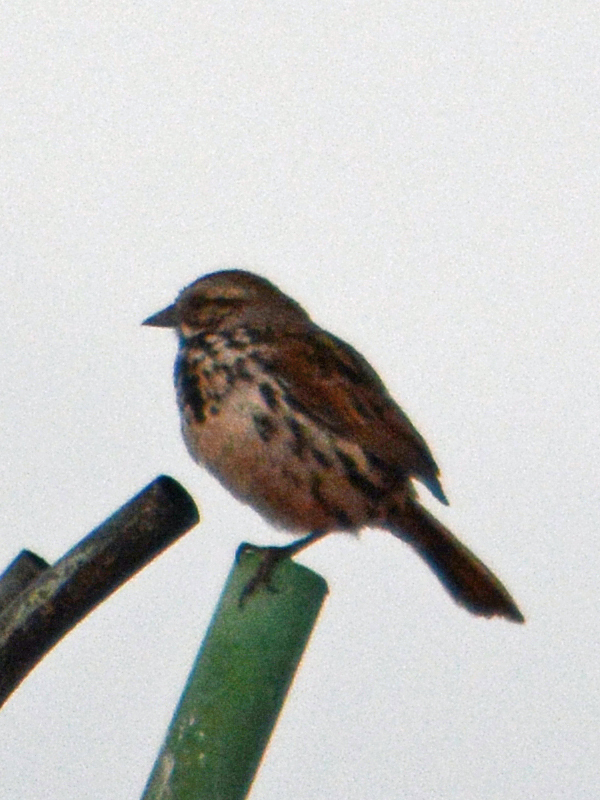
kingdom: Animalia
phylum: Chordata
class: Aves
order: Passeriformes
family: Passerellidae
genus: Melospiza
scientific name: Melospiza melodia
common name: Song sparrow
